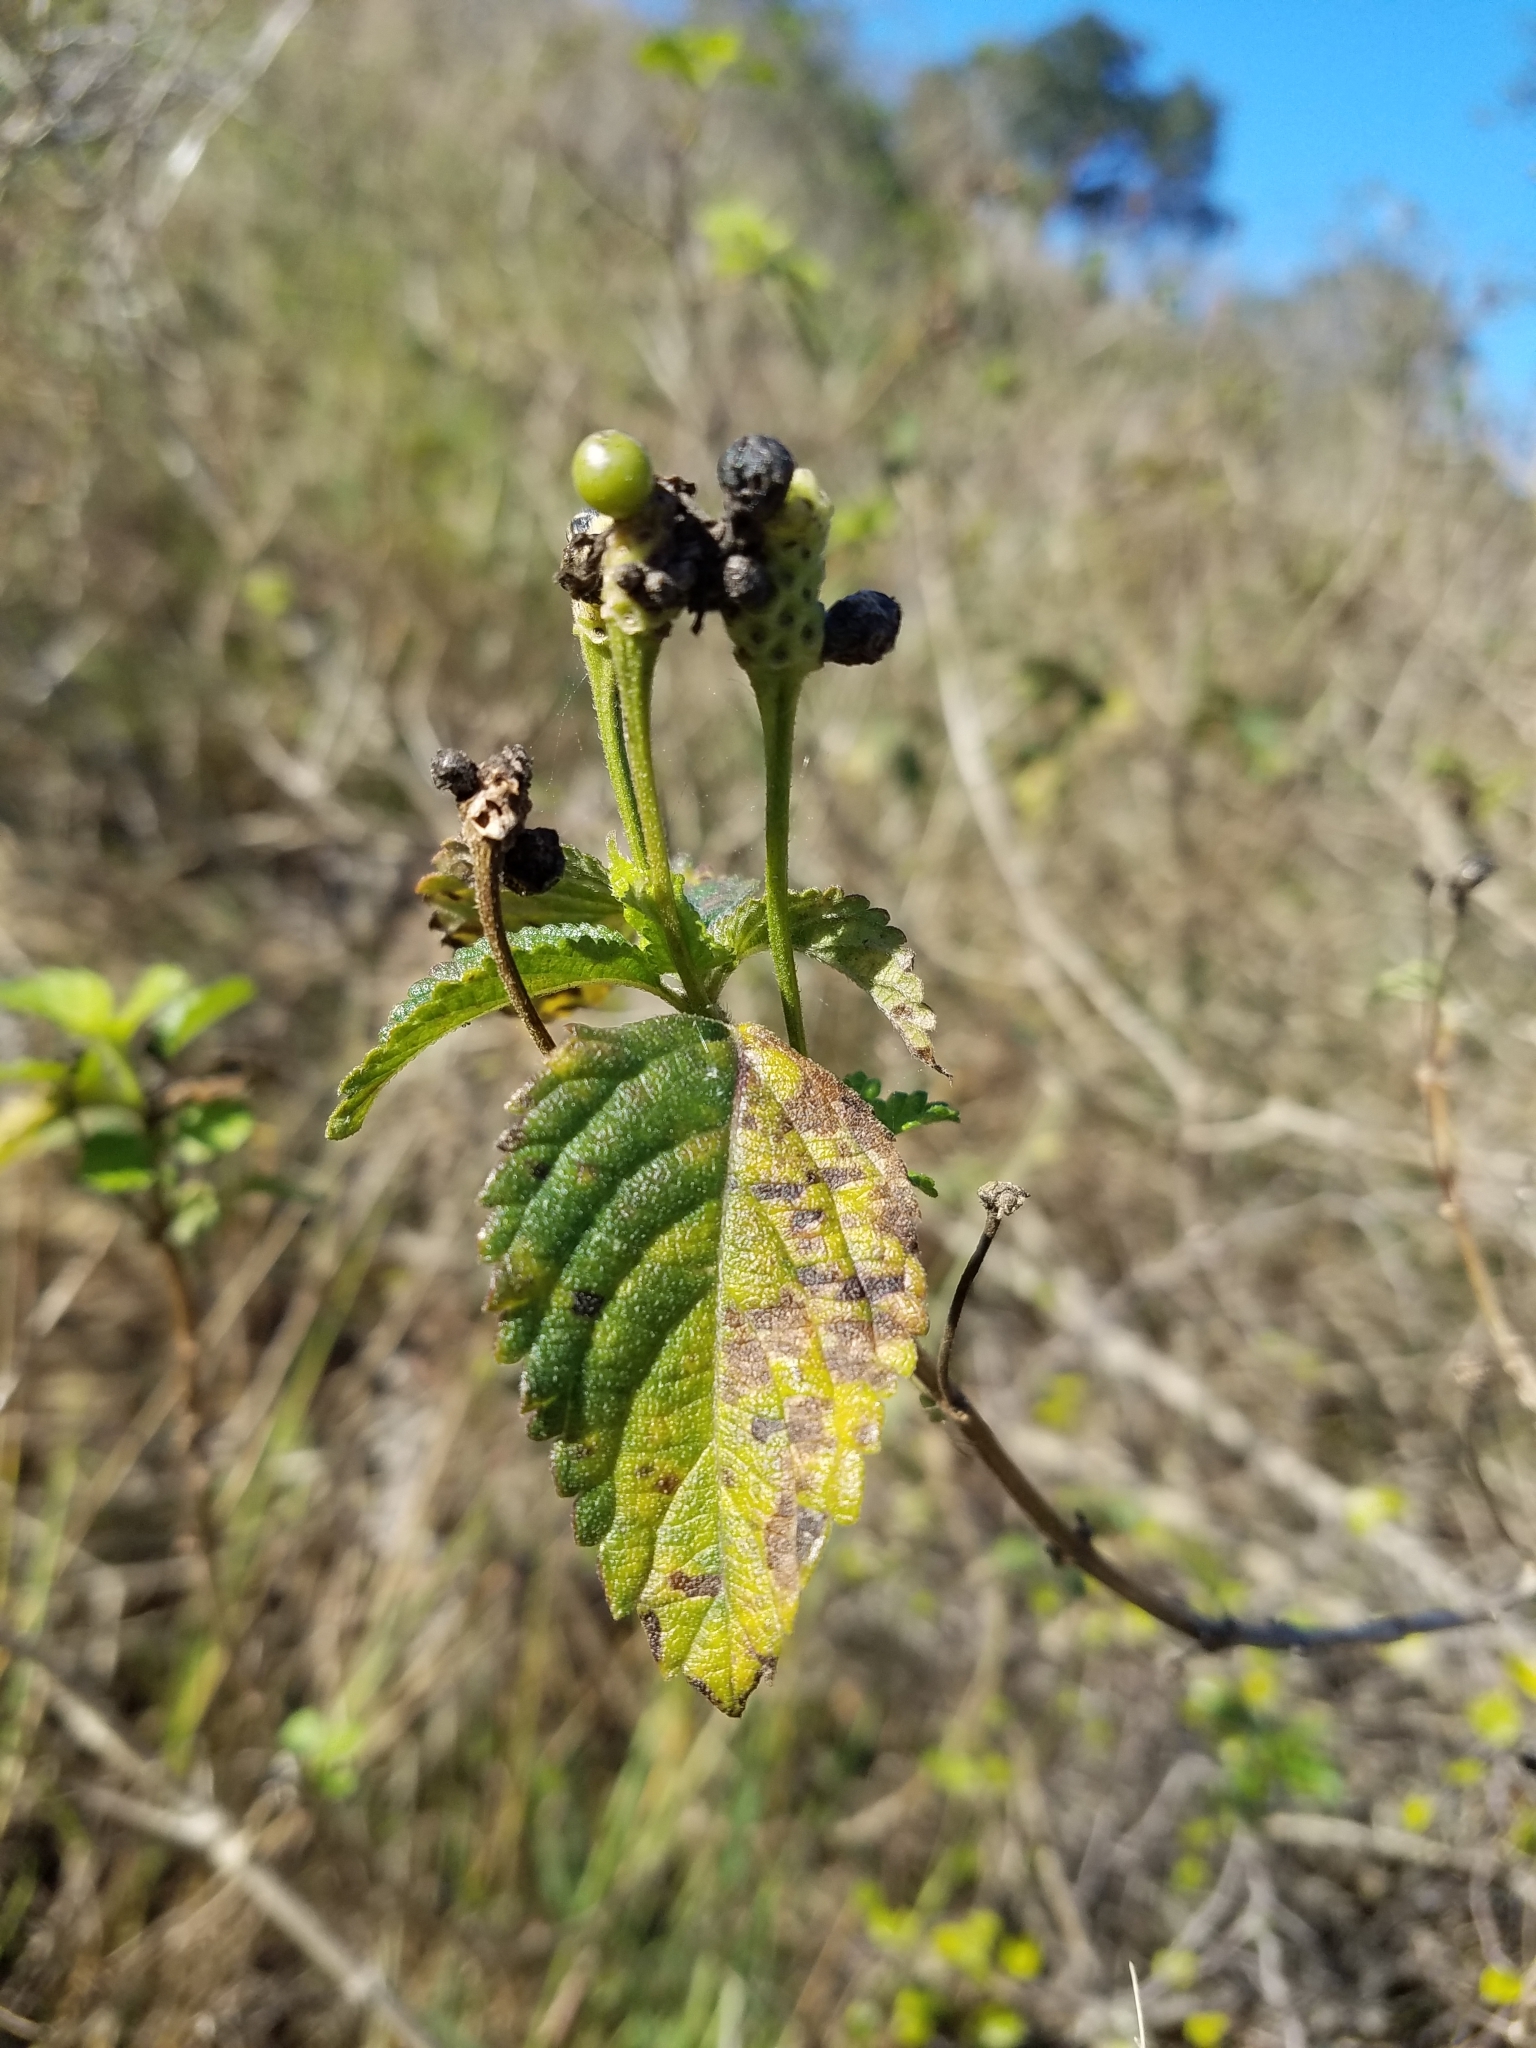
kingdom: Plantae
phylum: Tracheophyta
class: Magnoliopsida
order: Lamiales
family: Verbenaceae
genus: Lantana
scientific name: Lantana camara
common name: Lantana
